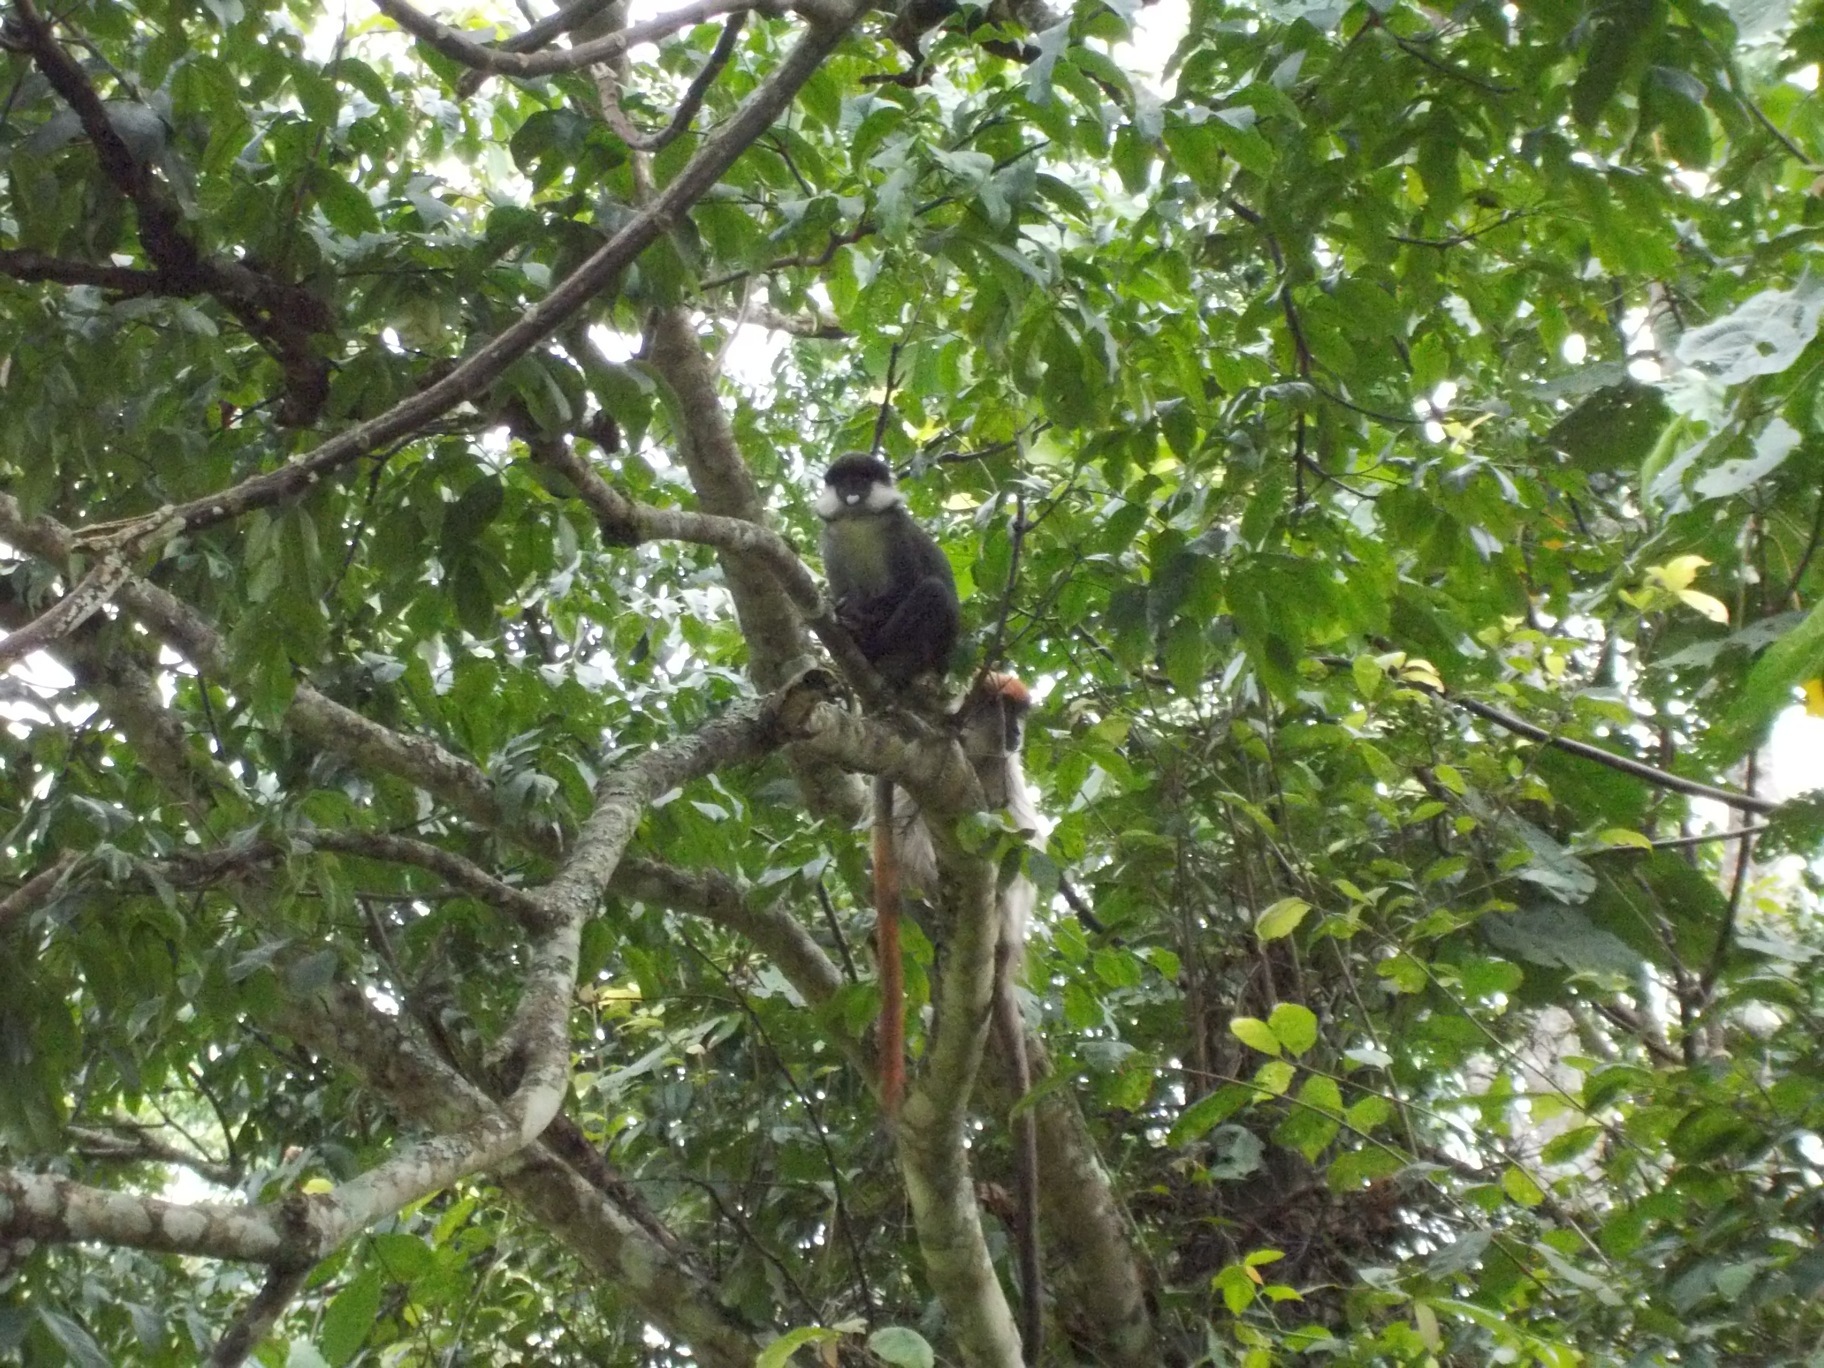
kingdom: Animalia
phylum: Chordata
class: Mammalia
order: Primates
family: Cercopithecidae
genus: Cercopithecus
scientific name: Cercopithecus ascanius
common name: Red-tailed monkey
